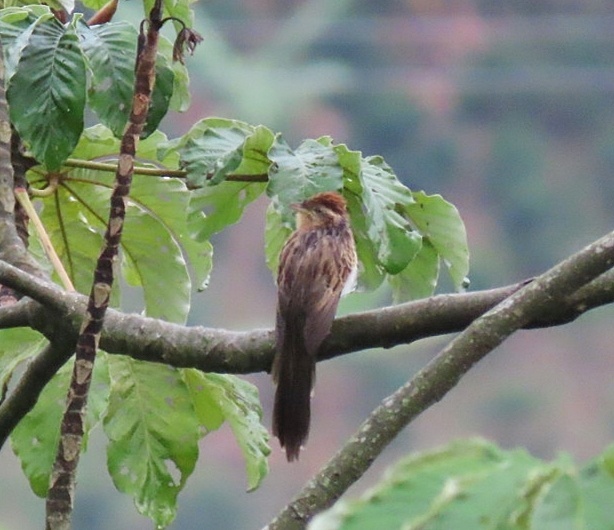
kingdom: Animalia
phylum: Chordata
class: Aves
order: Cuculiformes
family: Cuculidae
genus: Tapera
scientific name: Tapera naevia
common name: Striped cuckoo
